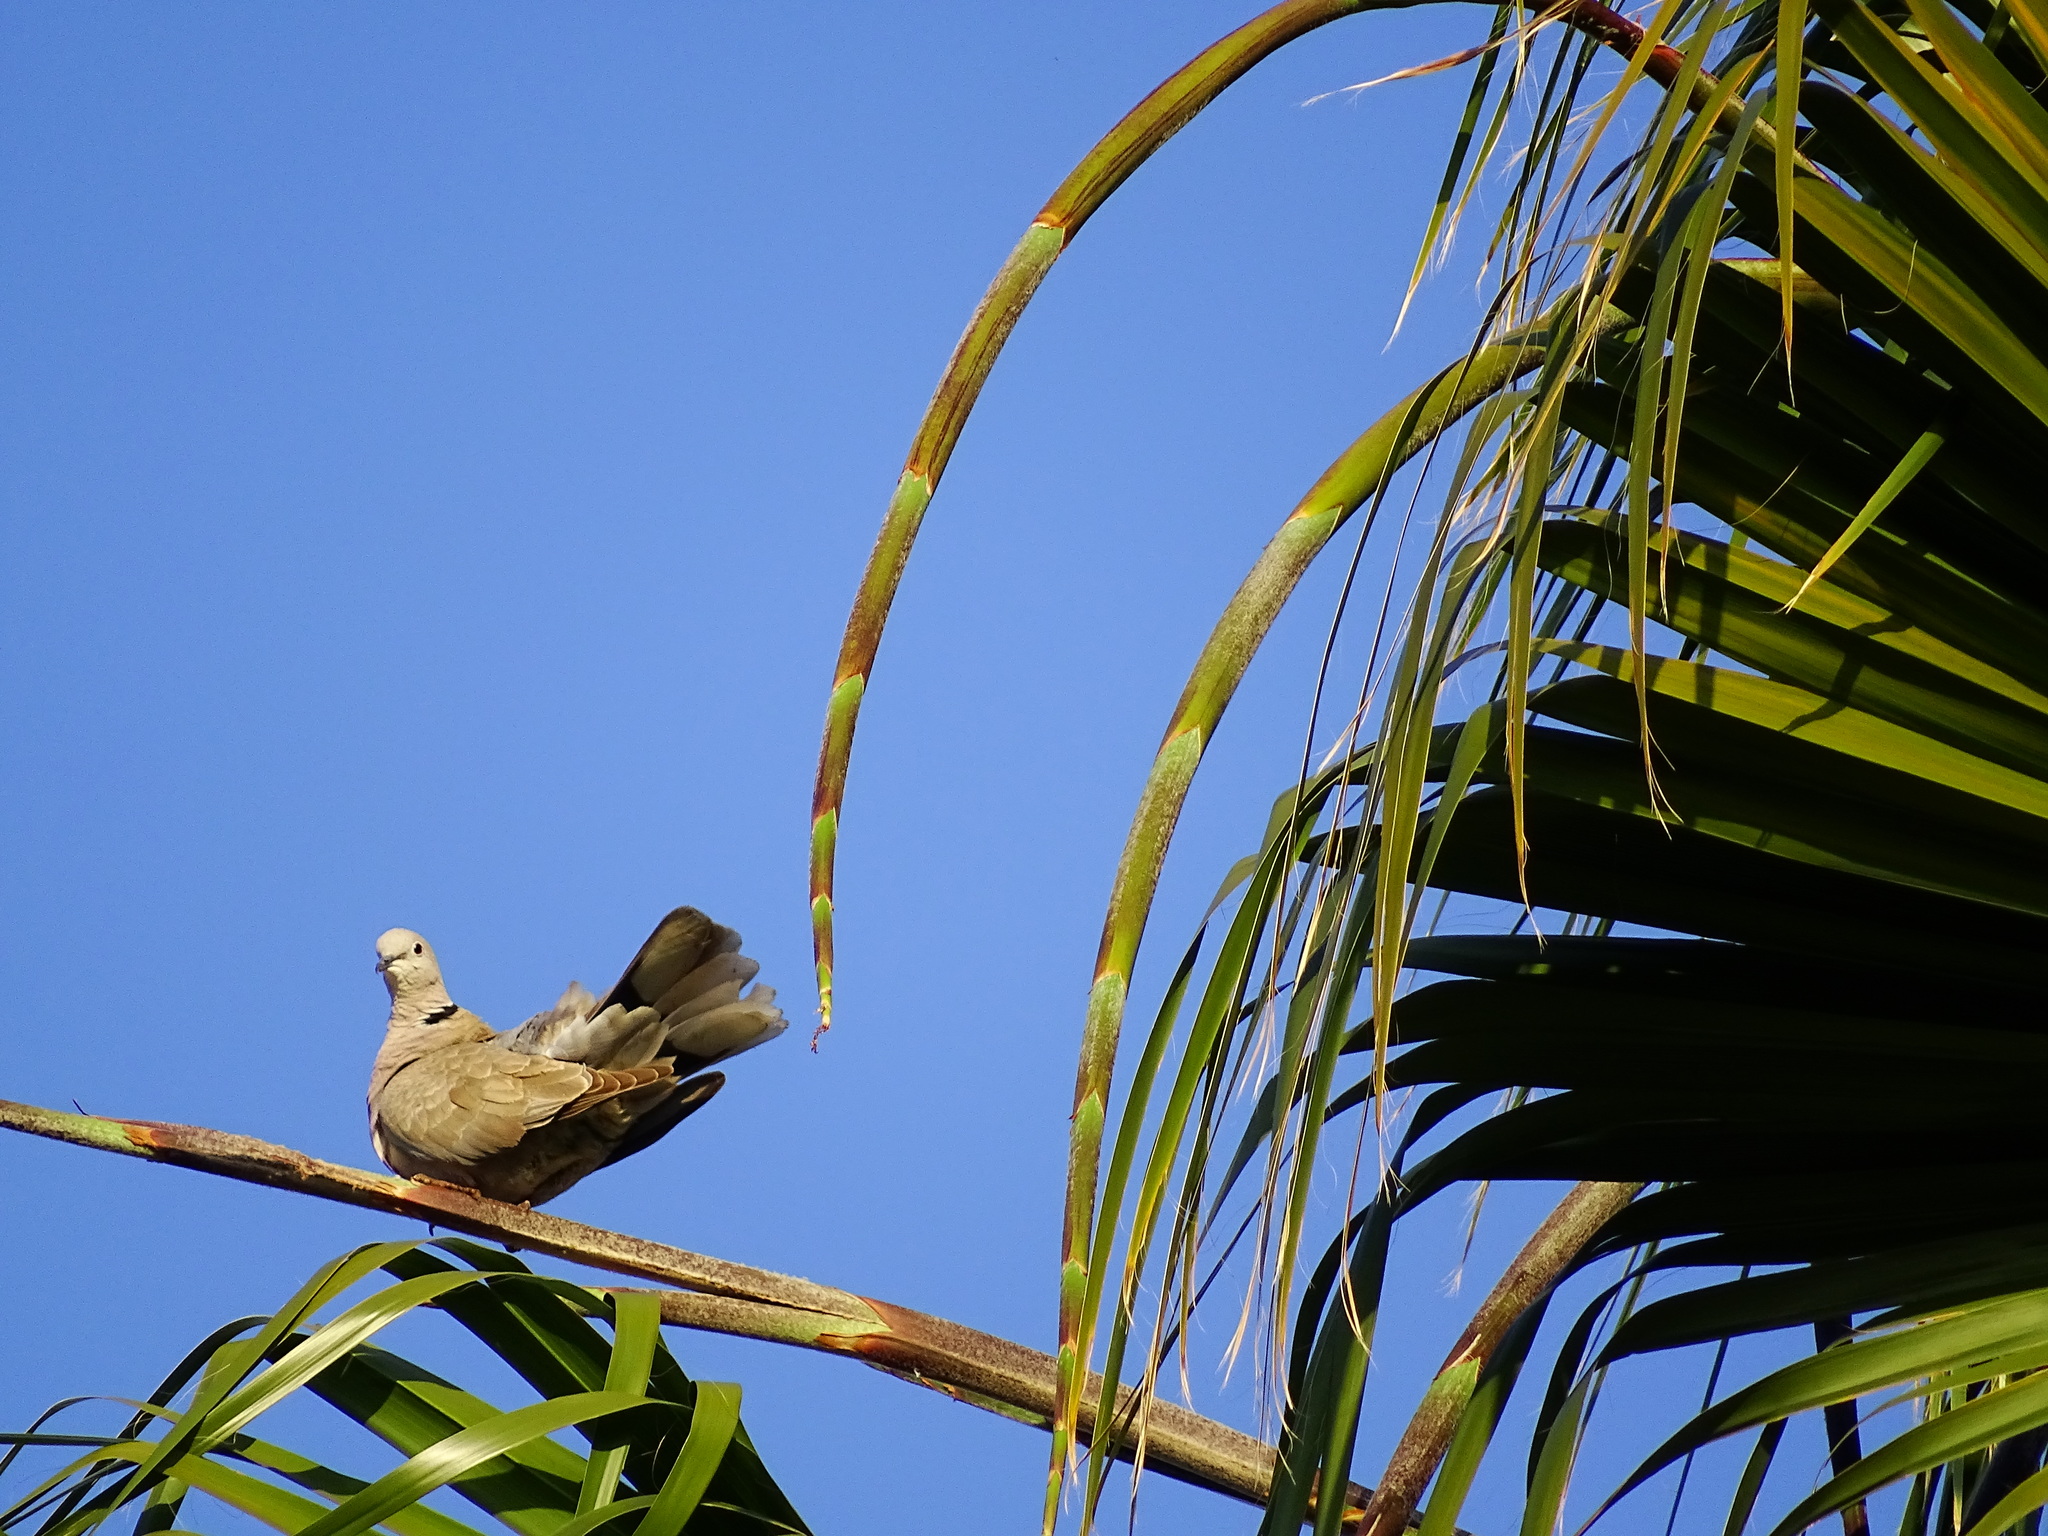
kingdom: Animalia
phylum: Chordata
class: Aves
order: Columbiformes
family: Columbidae
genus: Streptopelia
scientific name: Streptopelia decaocto
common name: Eurasian collared dove
